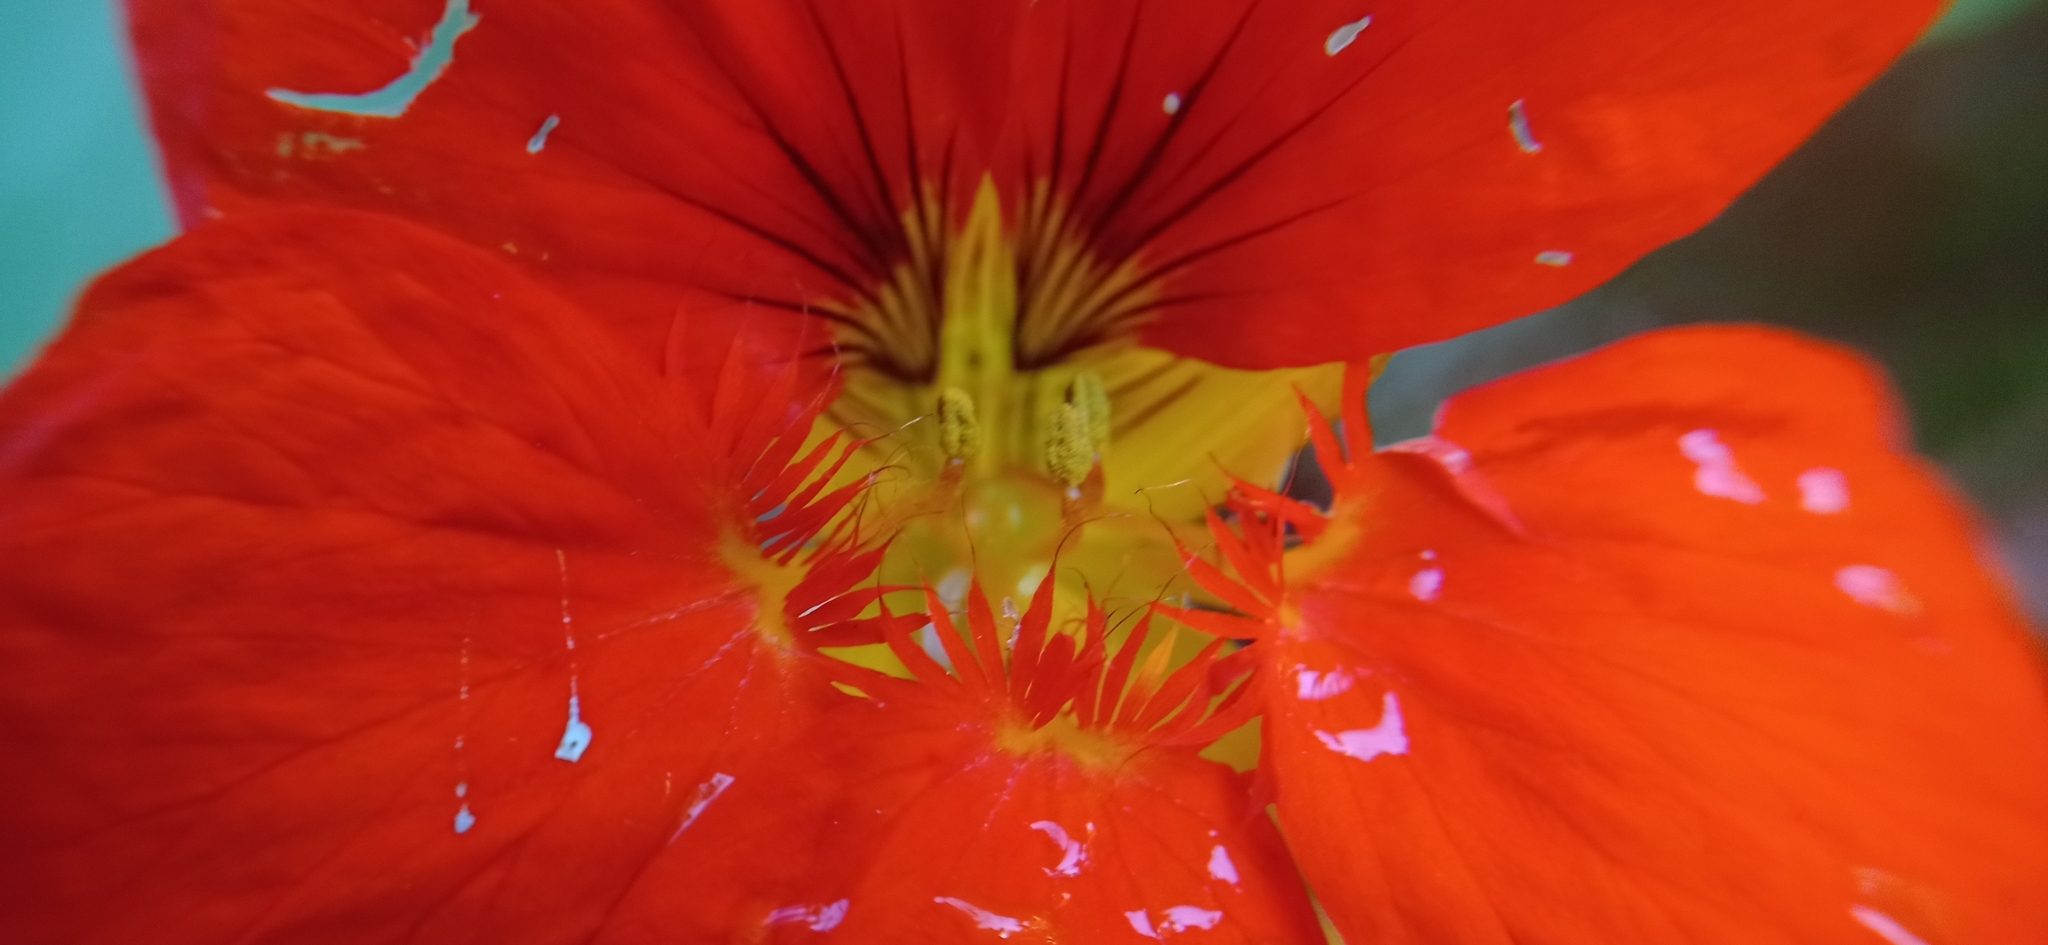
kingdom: Plantae
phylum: Tracheophyta
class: Magnoliopsida
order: Brassicales
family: Tropaeolaceae
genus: Tropaeolum
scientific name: Tropaeolum majus
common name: Nasturtium
